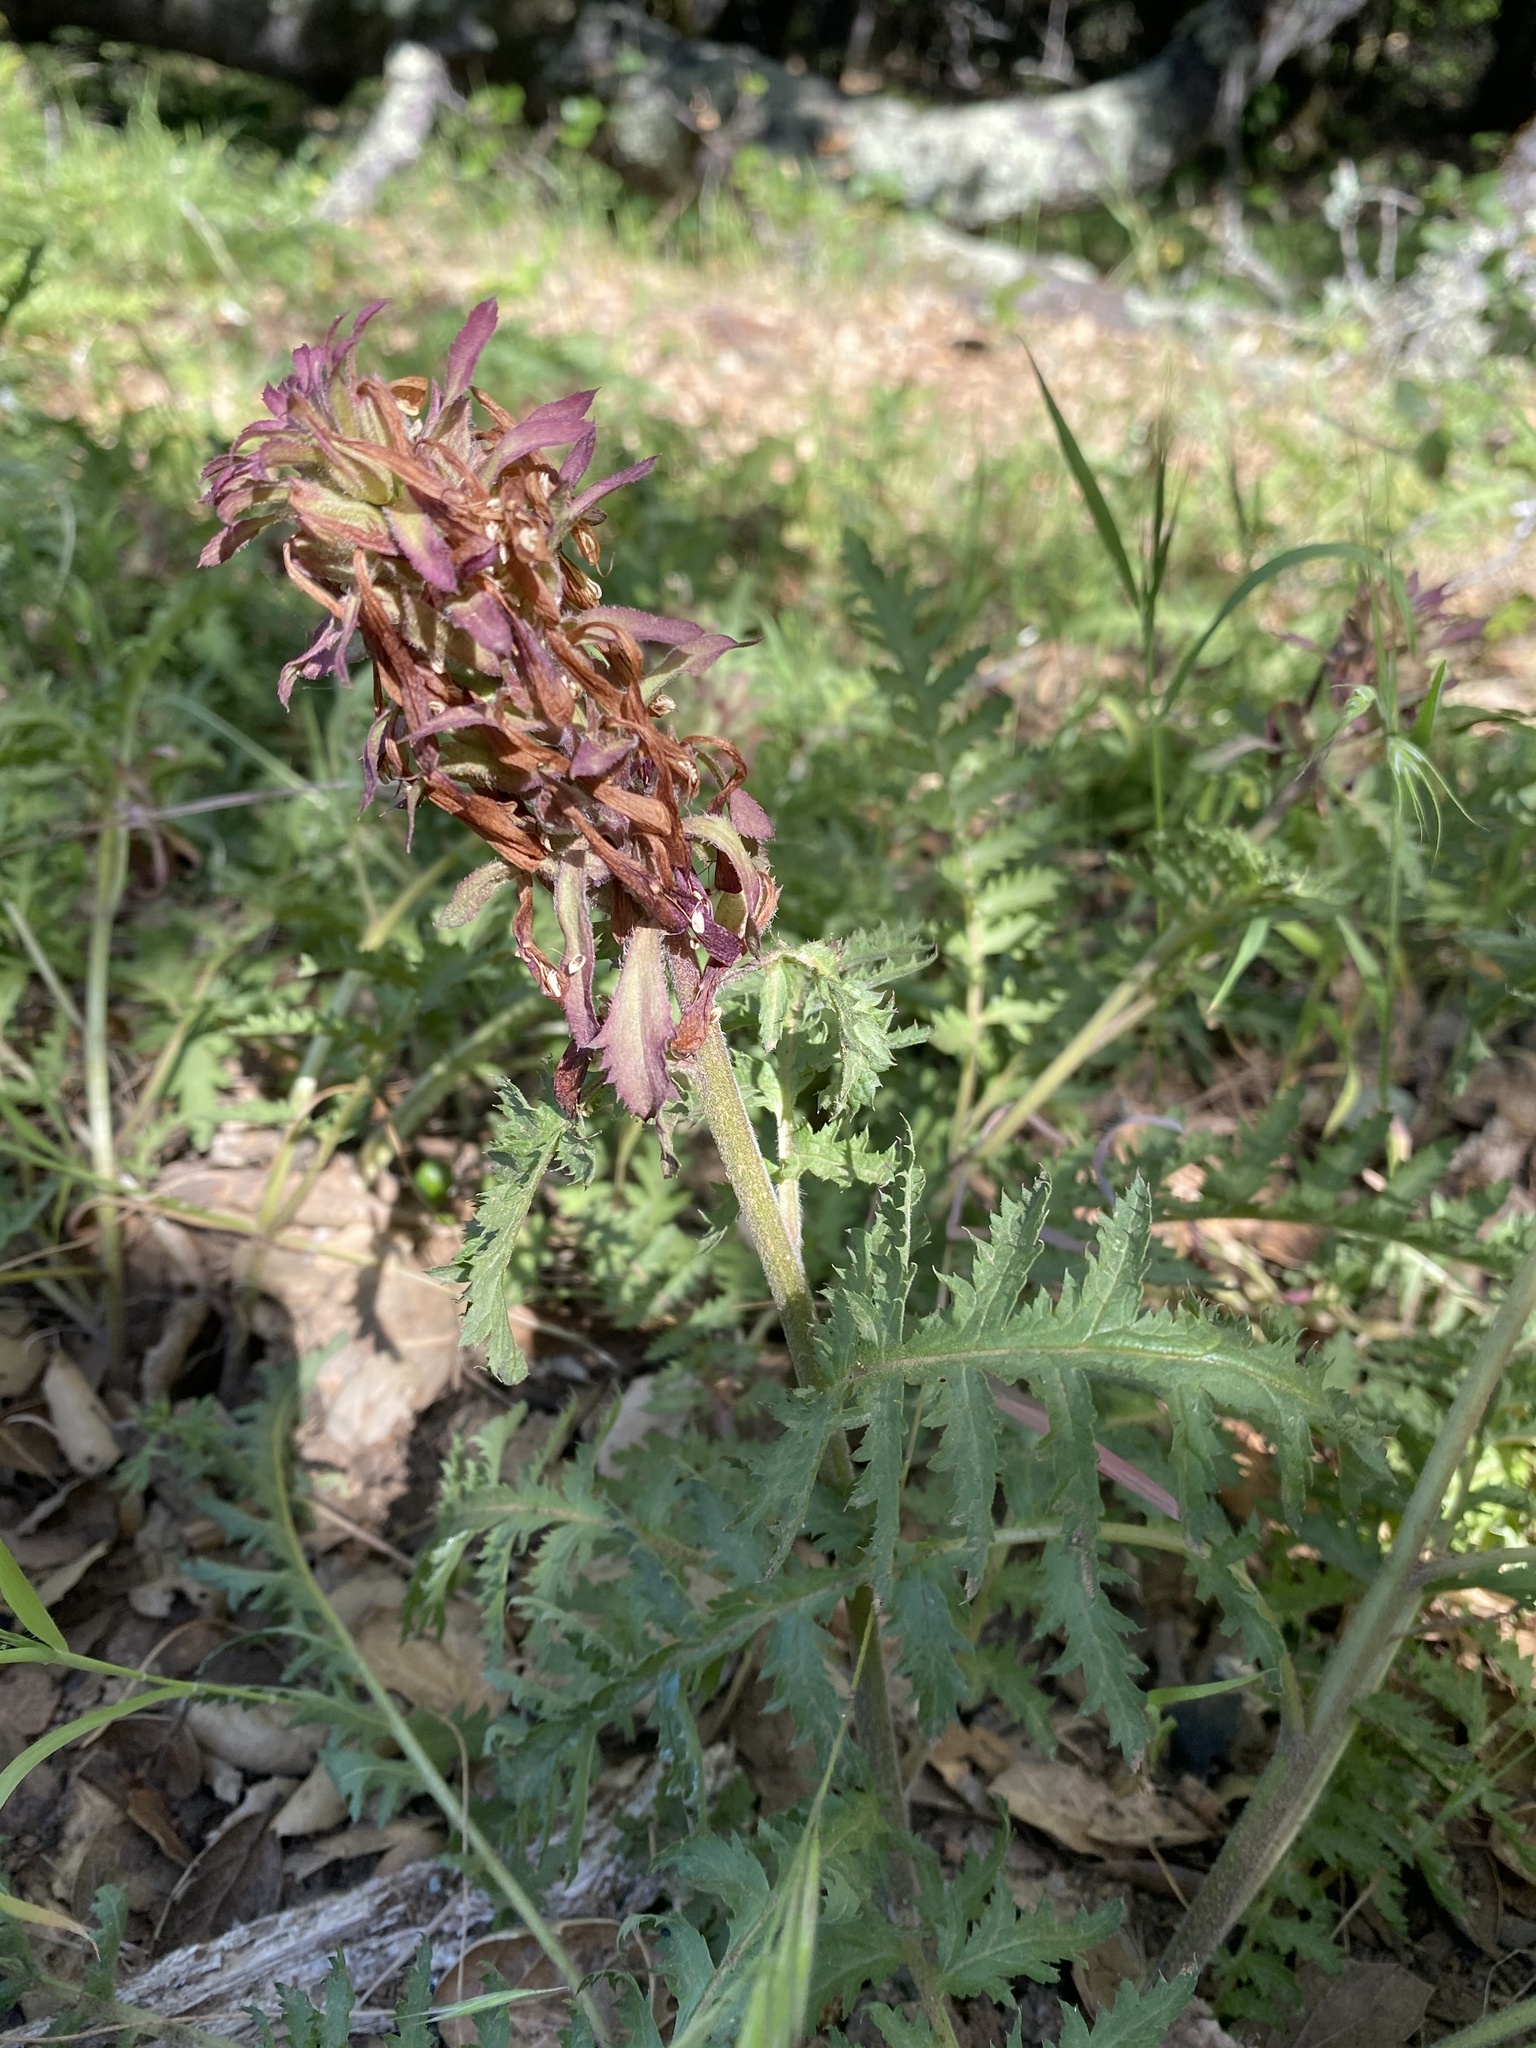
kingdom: Plantae
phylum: Tracheophyta
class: Magnoliopsida
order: Lamiales
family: Orobanchaceae
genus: Pedicularis
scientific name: Pedicularis densiflora
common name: Indian warrior
